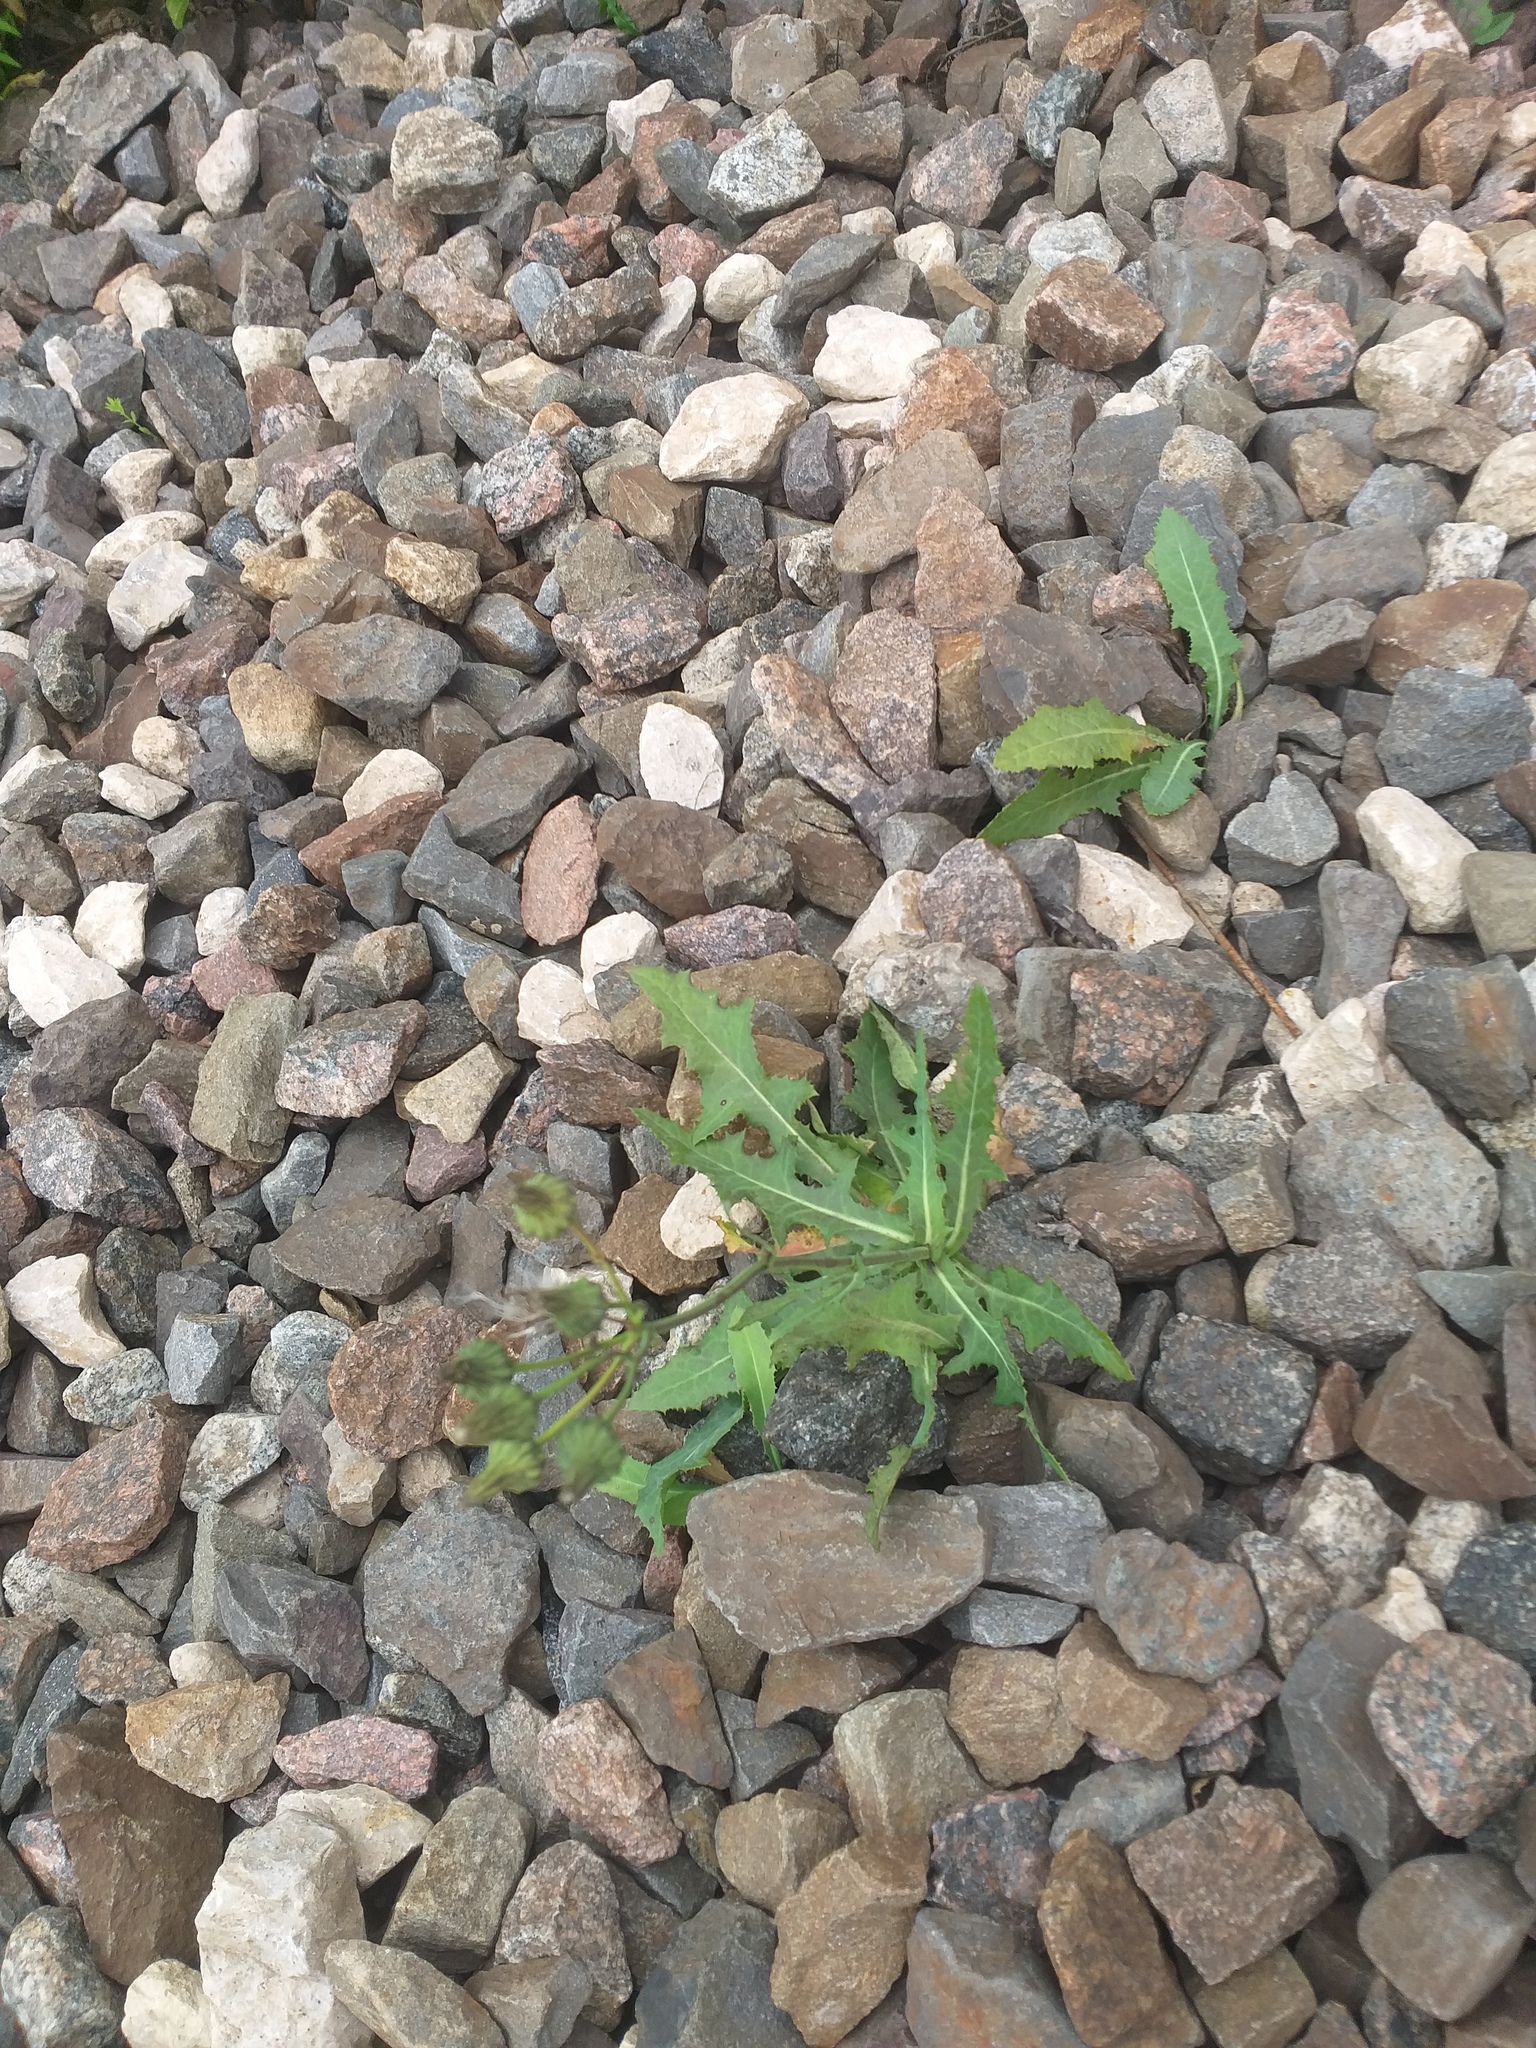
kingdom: Plantae
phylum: Tracheophyta
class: Magnoliopsida
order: Asterales
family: Asteraceae
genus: Sonchus
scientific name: Sonchus arvensis
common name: Perennial sow-thistle
